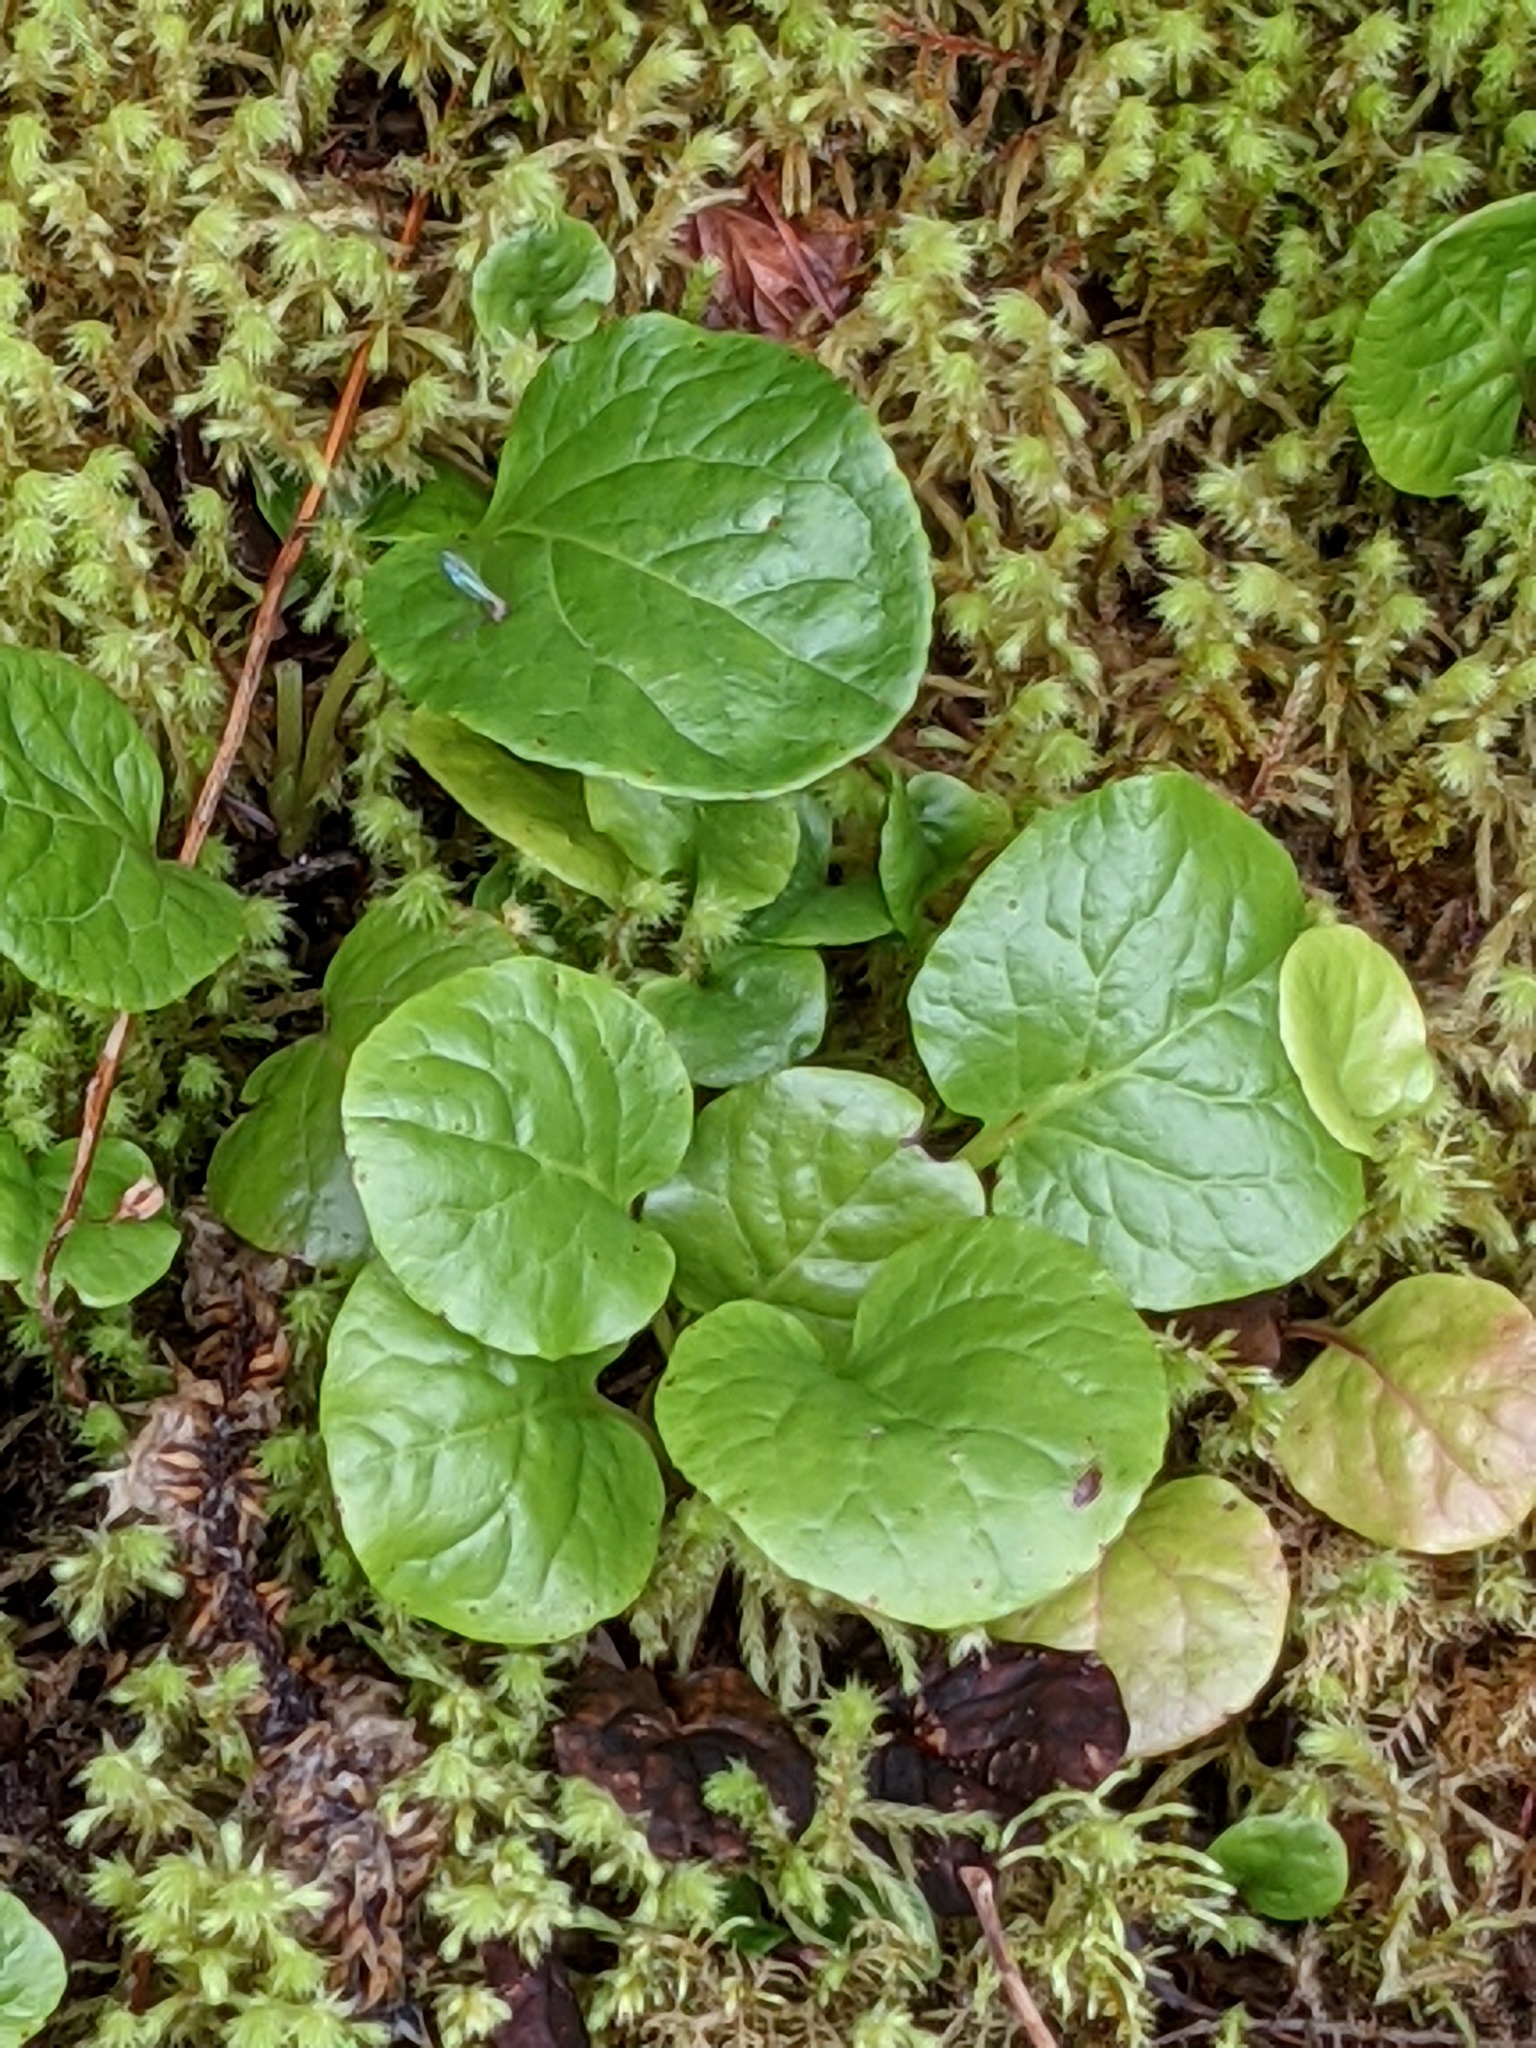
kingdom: Plantae
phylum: Tracheophyta
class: Magnoliopsida
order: Ericales
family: Ericaceae
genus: Pyrola
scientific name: Pyrola asarifolia
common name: Bog wintergreen
